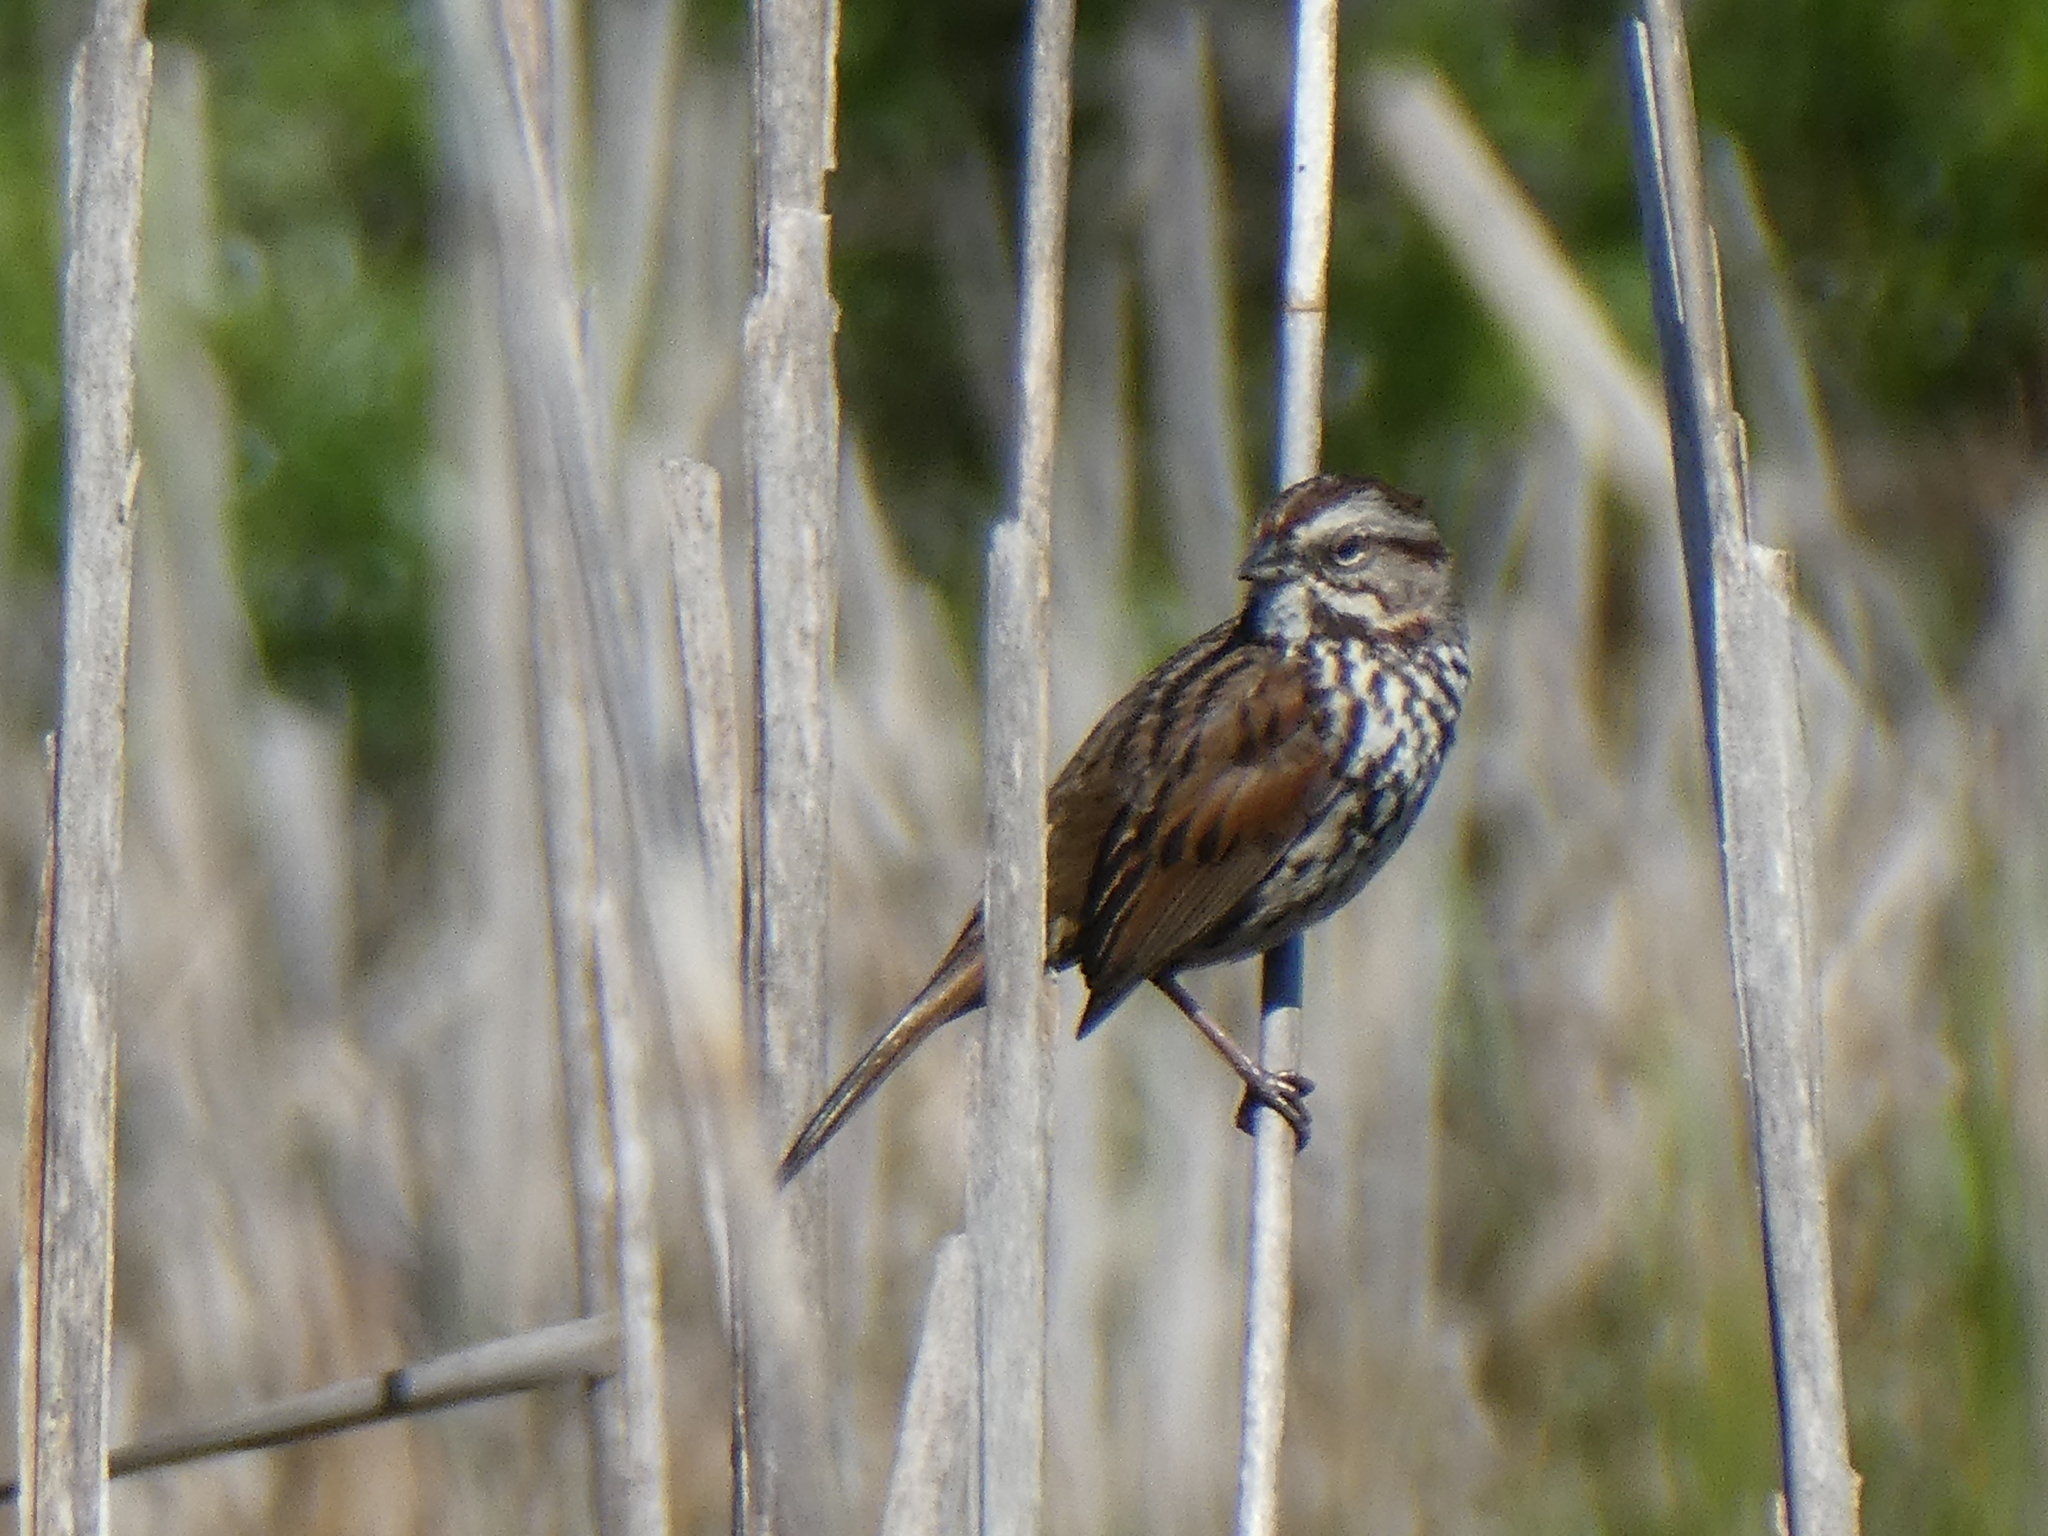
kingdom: Animalia
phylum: Chordata
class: Aves
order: Passeriformes
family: Passerellidae
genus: Melospiza
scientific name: Melospiza melodia
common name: Song sparrow
